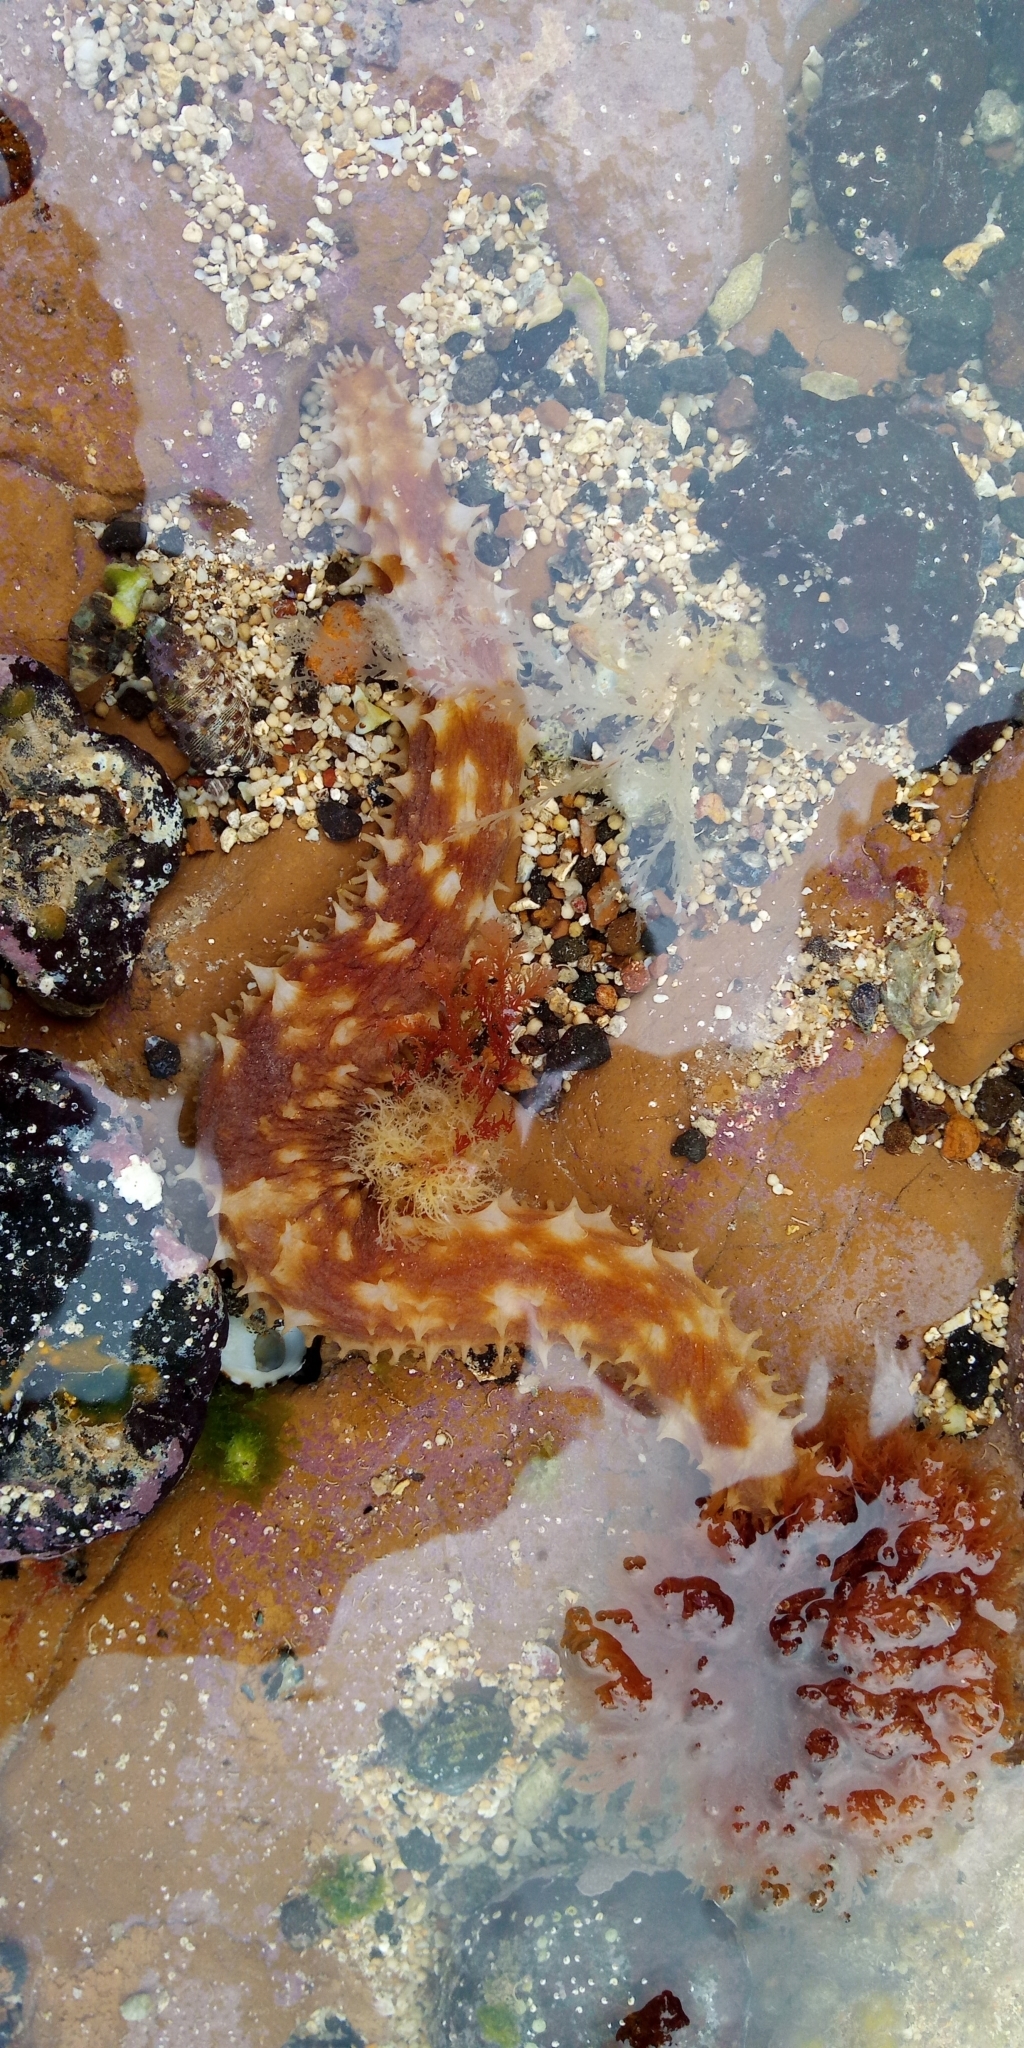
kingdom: Animalia
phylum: Echinodermata
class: Holothuroidea
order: Holothuriida
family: Holothuriidae
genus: Holothuria
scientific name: Holothuria hilla
